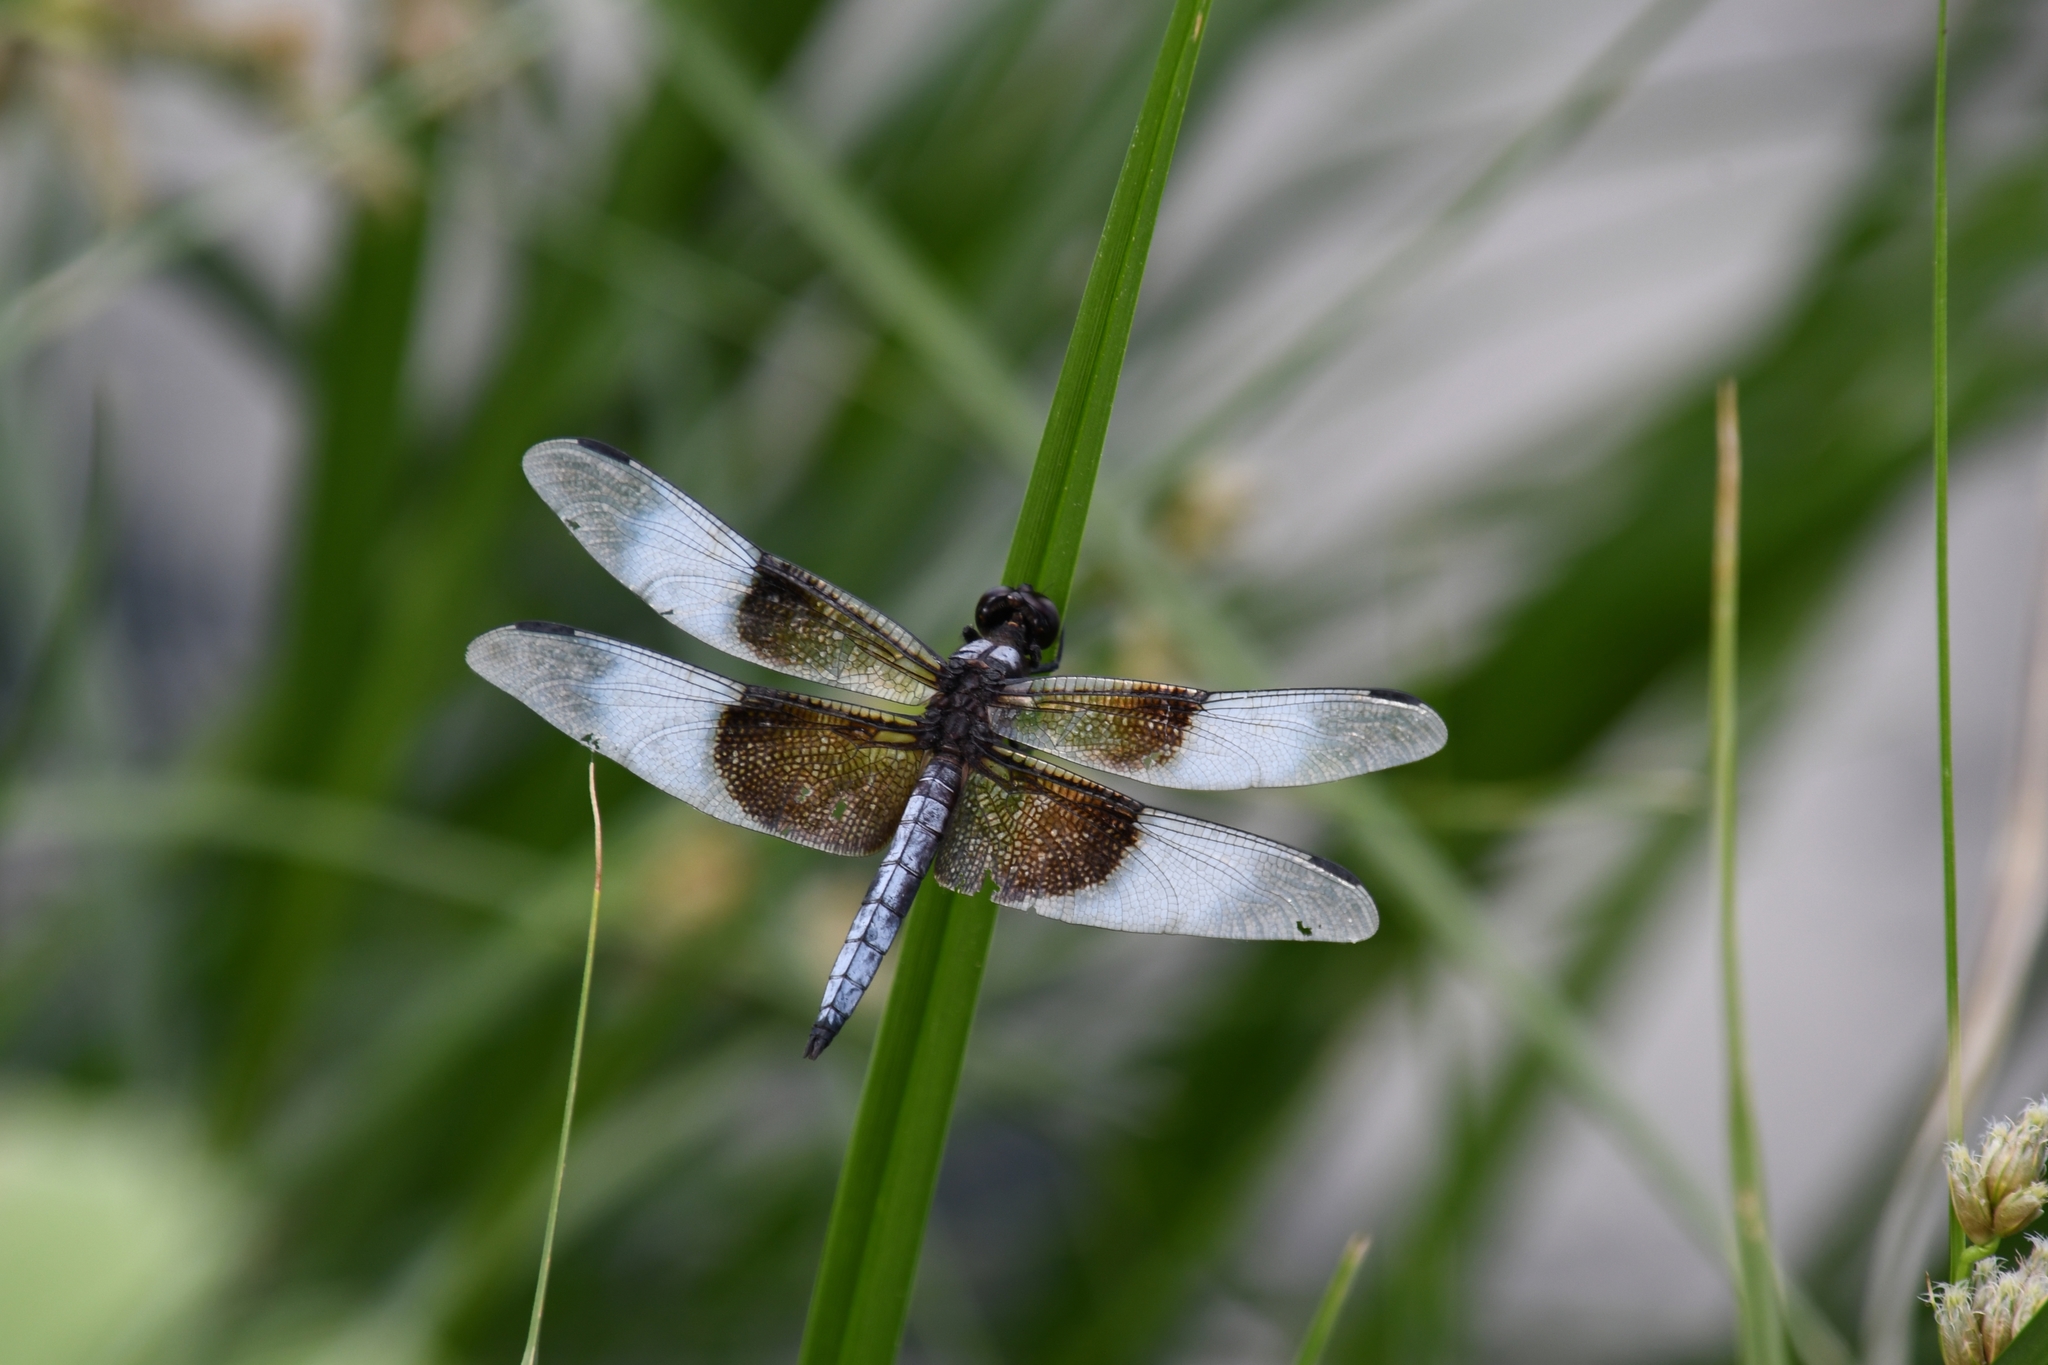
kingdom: Animalia
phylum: Arthropoda
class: Insecta
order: Odonata
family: Libellulidae
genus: Libellula
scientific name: Libellula luctuosa
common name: Widow skimmer
